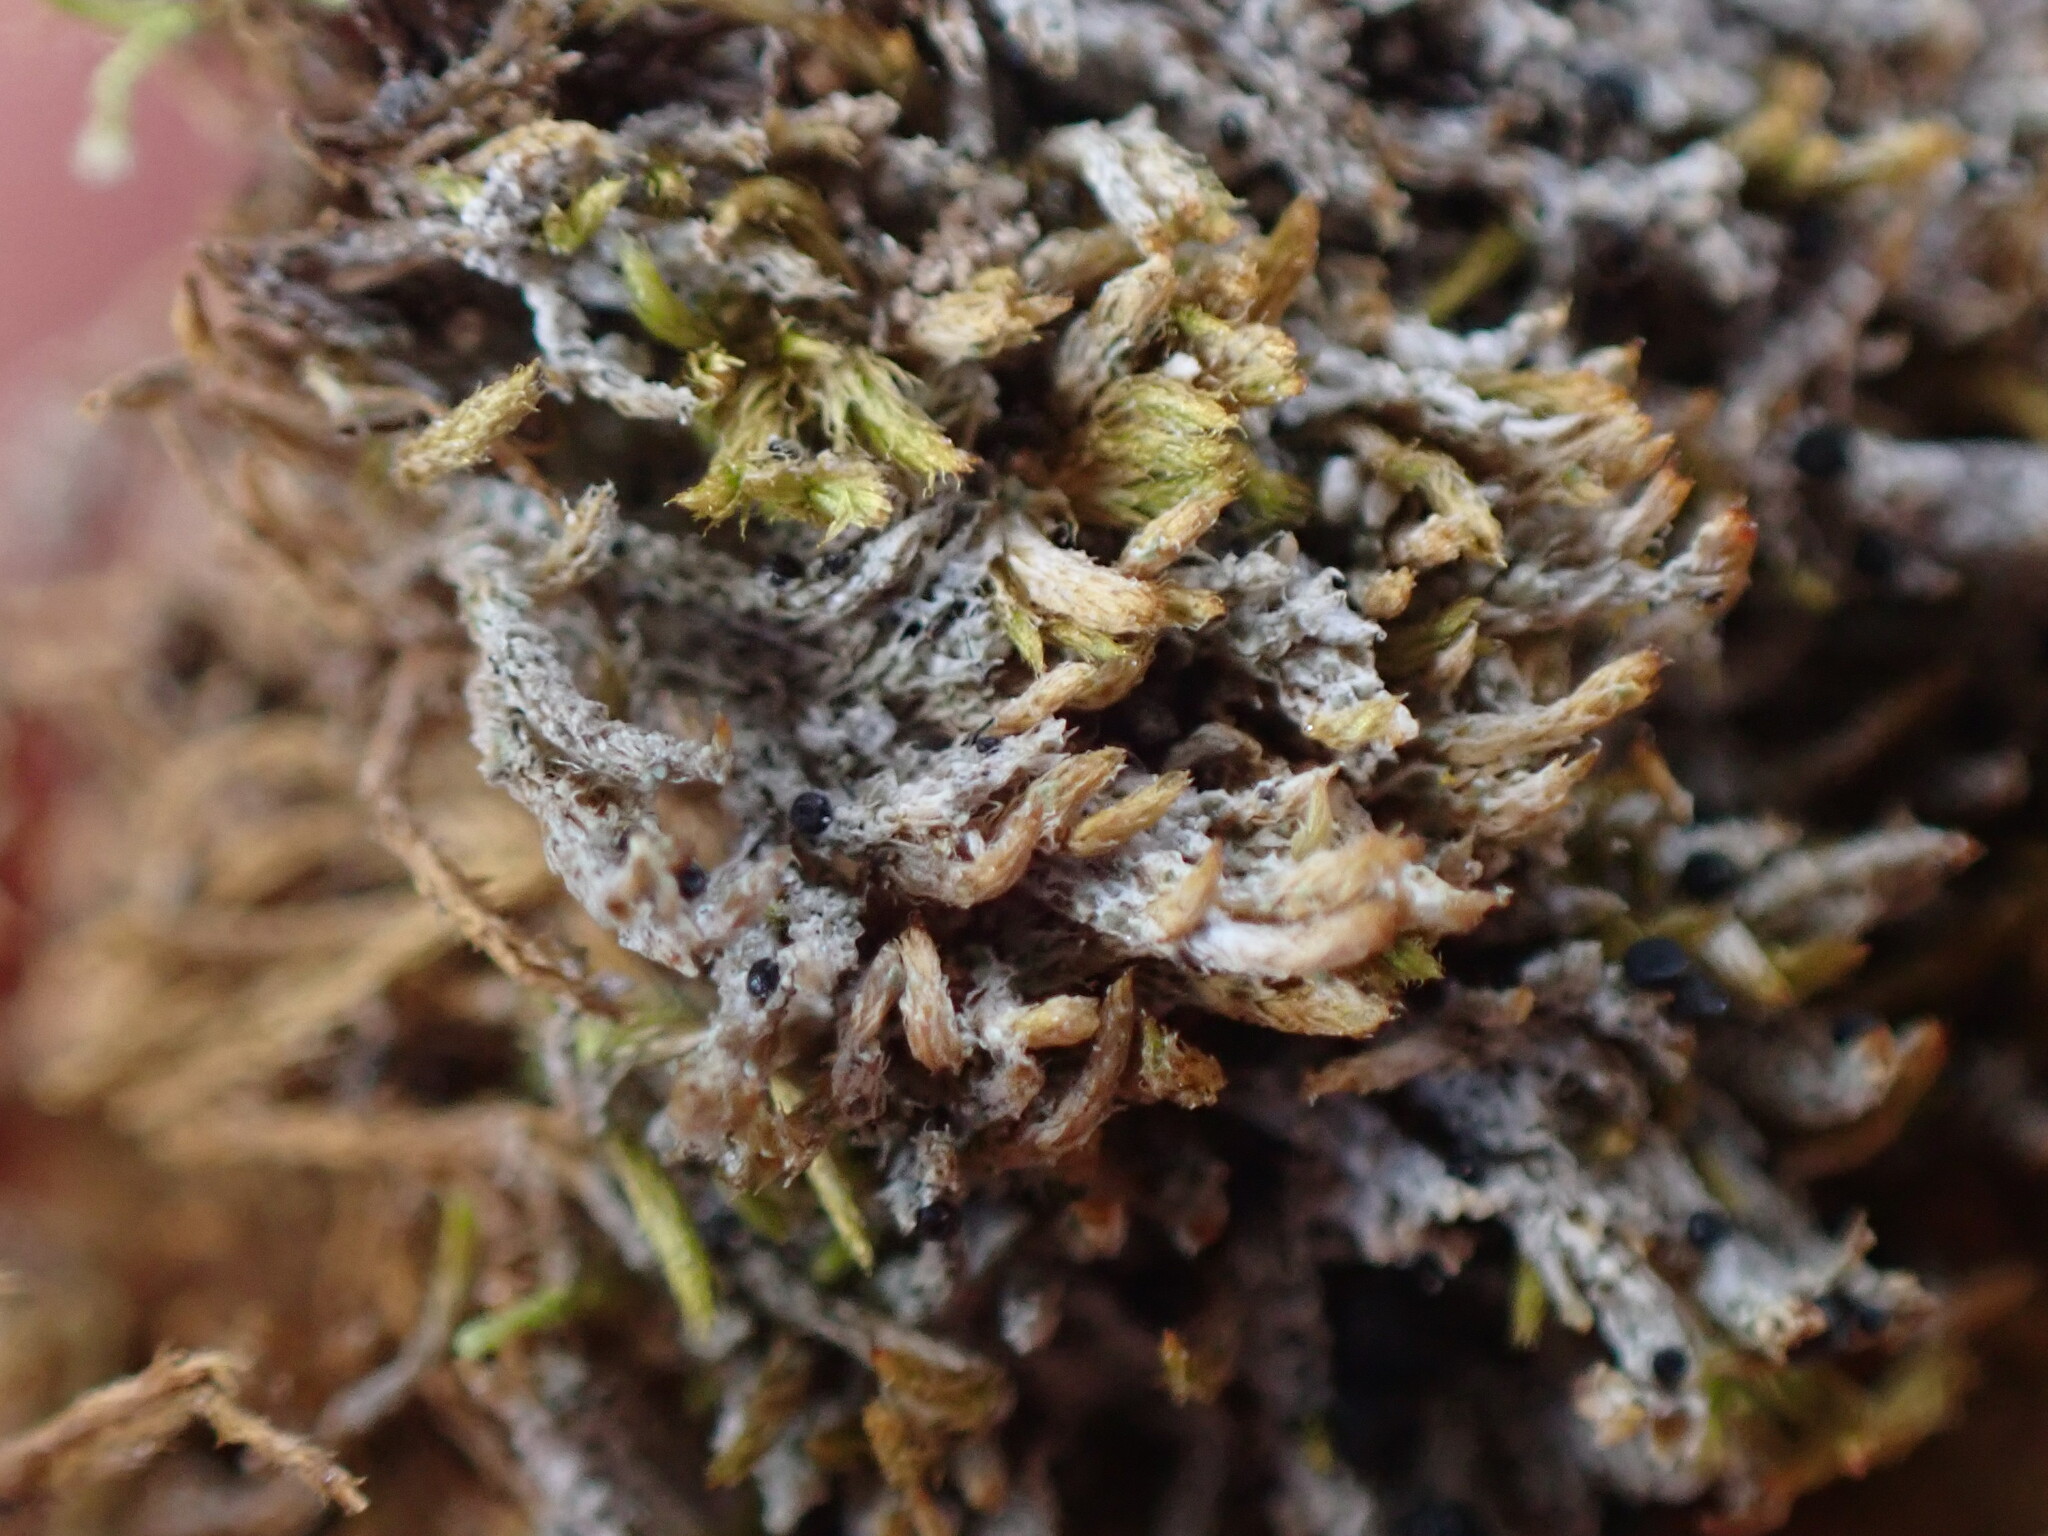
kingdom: Fungi
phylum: Ascomycota
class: Lecanoromycetes
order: Lecanorales
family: Ramalinaceae
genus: Bilimbia
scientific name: Bilimbia sabuletorum
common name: Six-celled moss dot lichen
